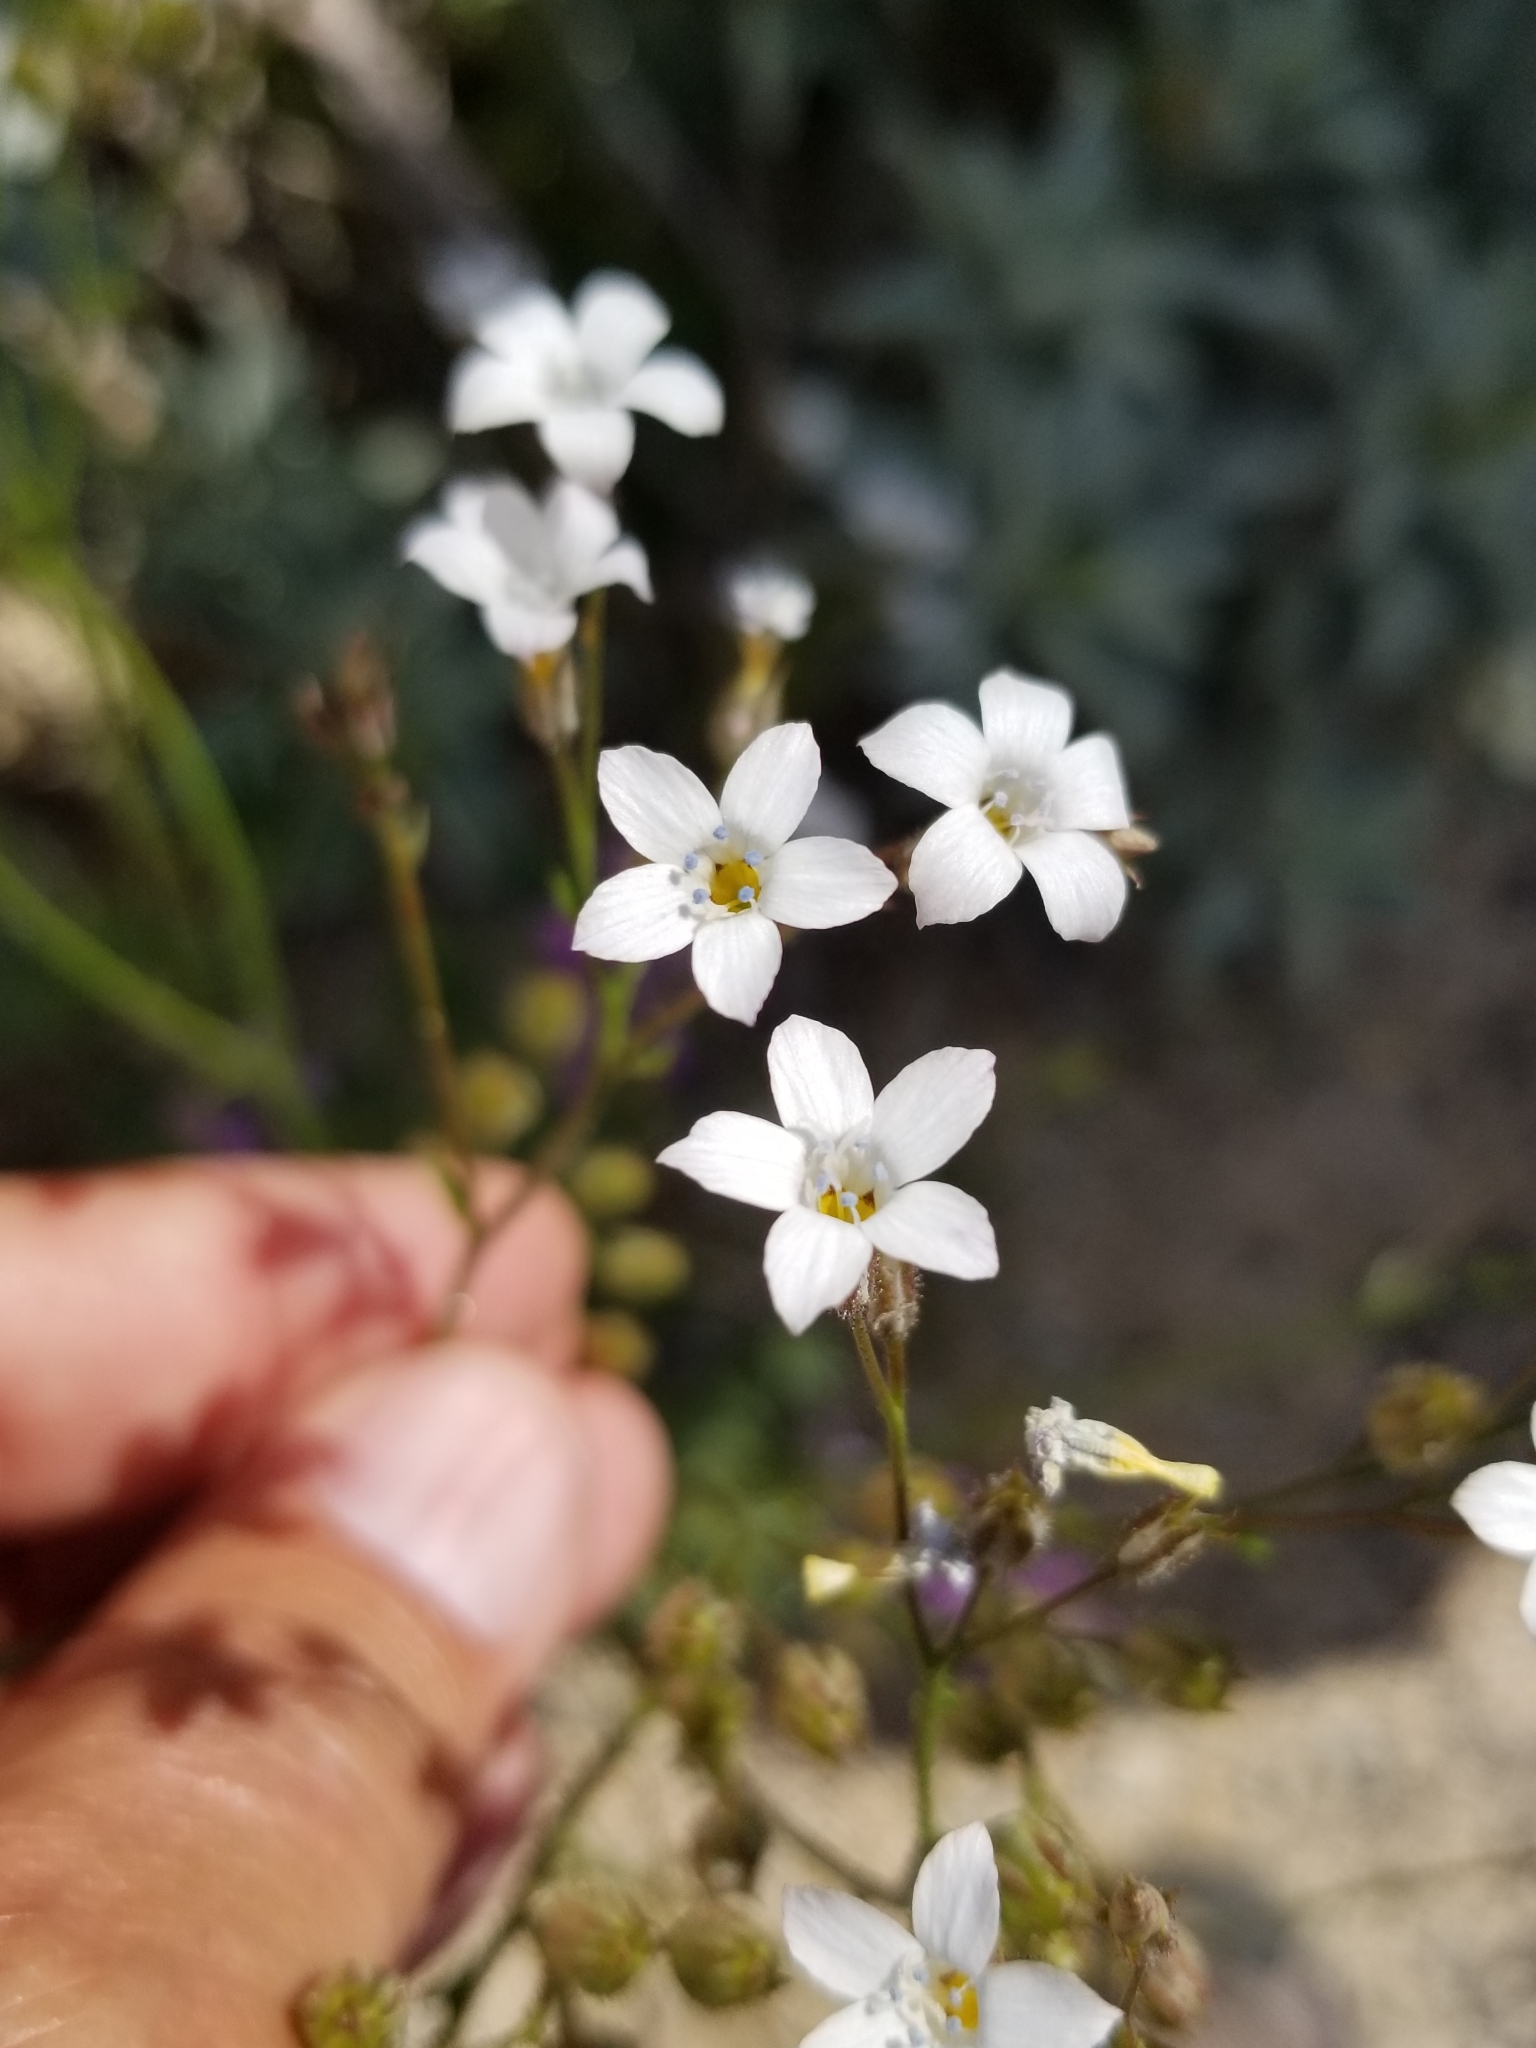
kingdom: Plantae
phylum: Tracheophyta
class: Magnoliopsida
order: Ericales
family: Polemoniaceae
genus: Gilia
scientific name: Gilia stellata
